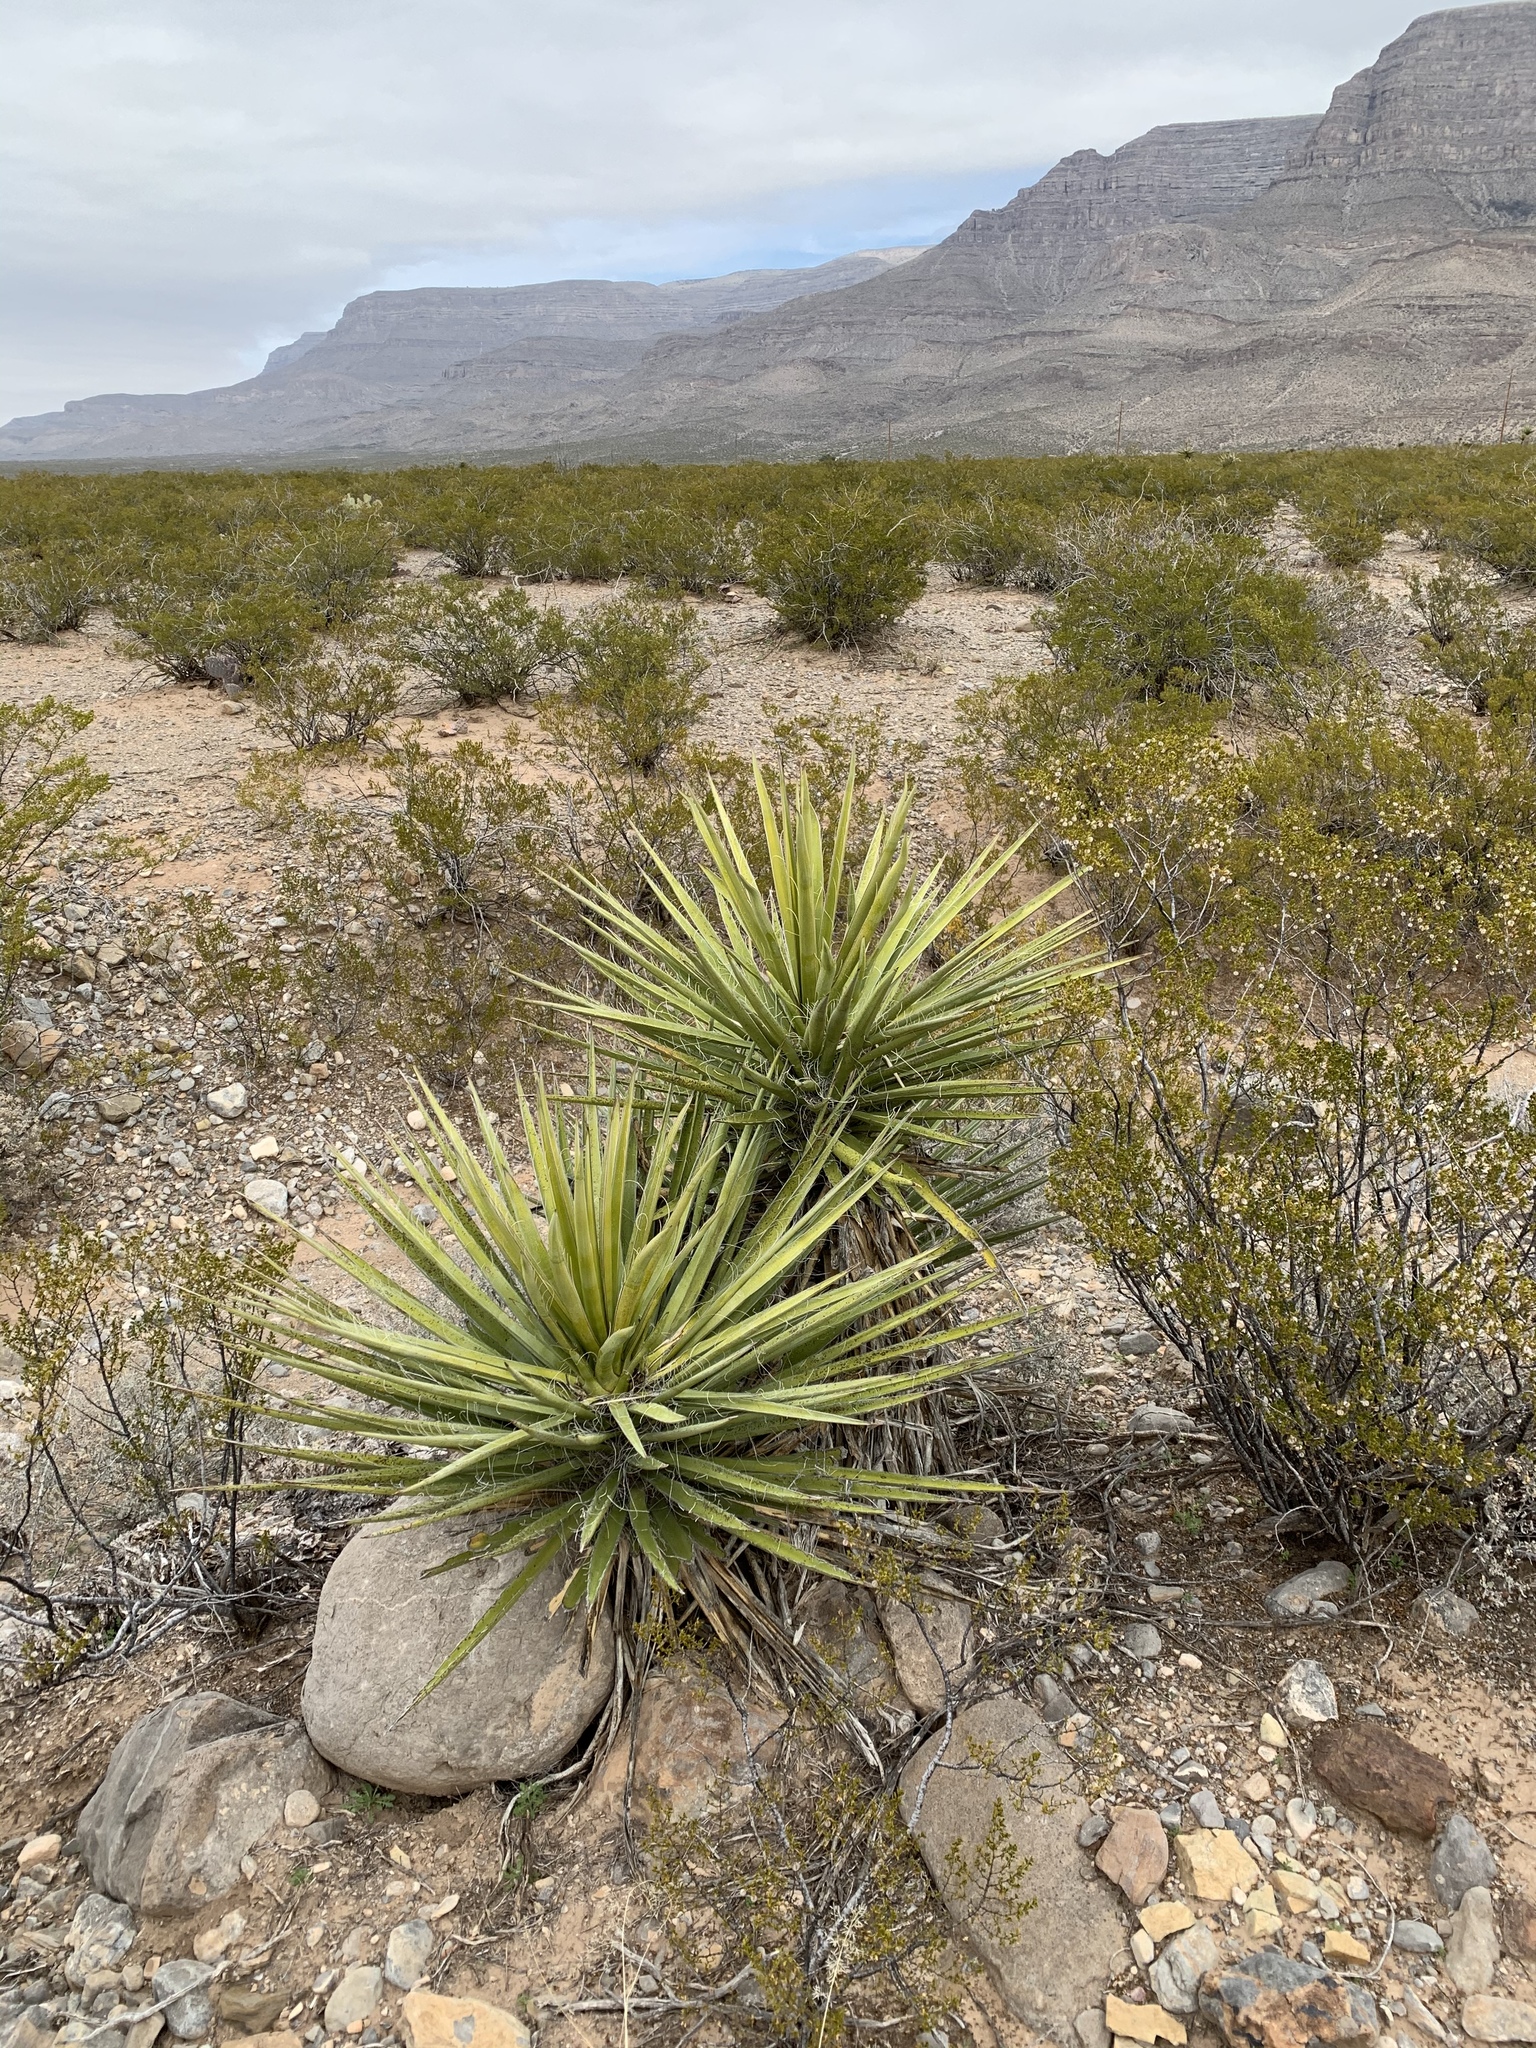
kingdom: Plantae
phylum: Tracheophyta
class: Liliopsida
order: Asparagales
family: Asparagaceae
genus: Yucca
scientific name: Yucca treculiana
